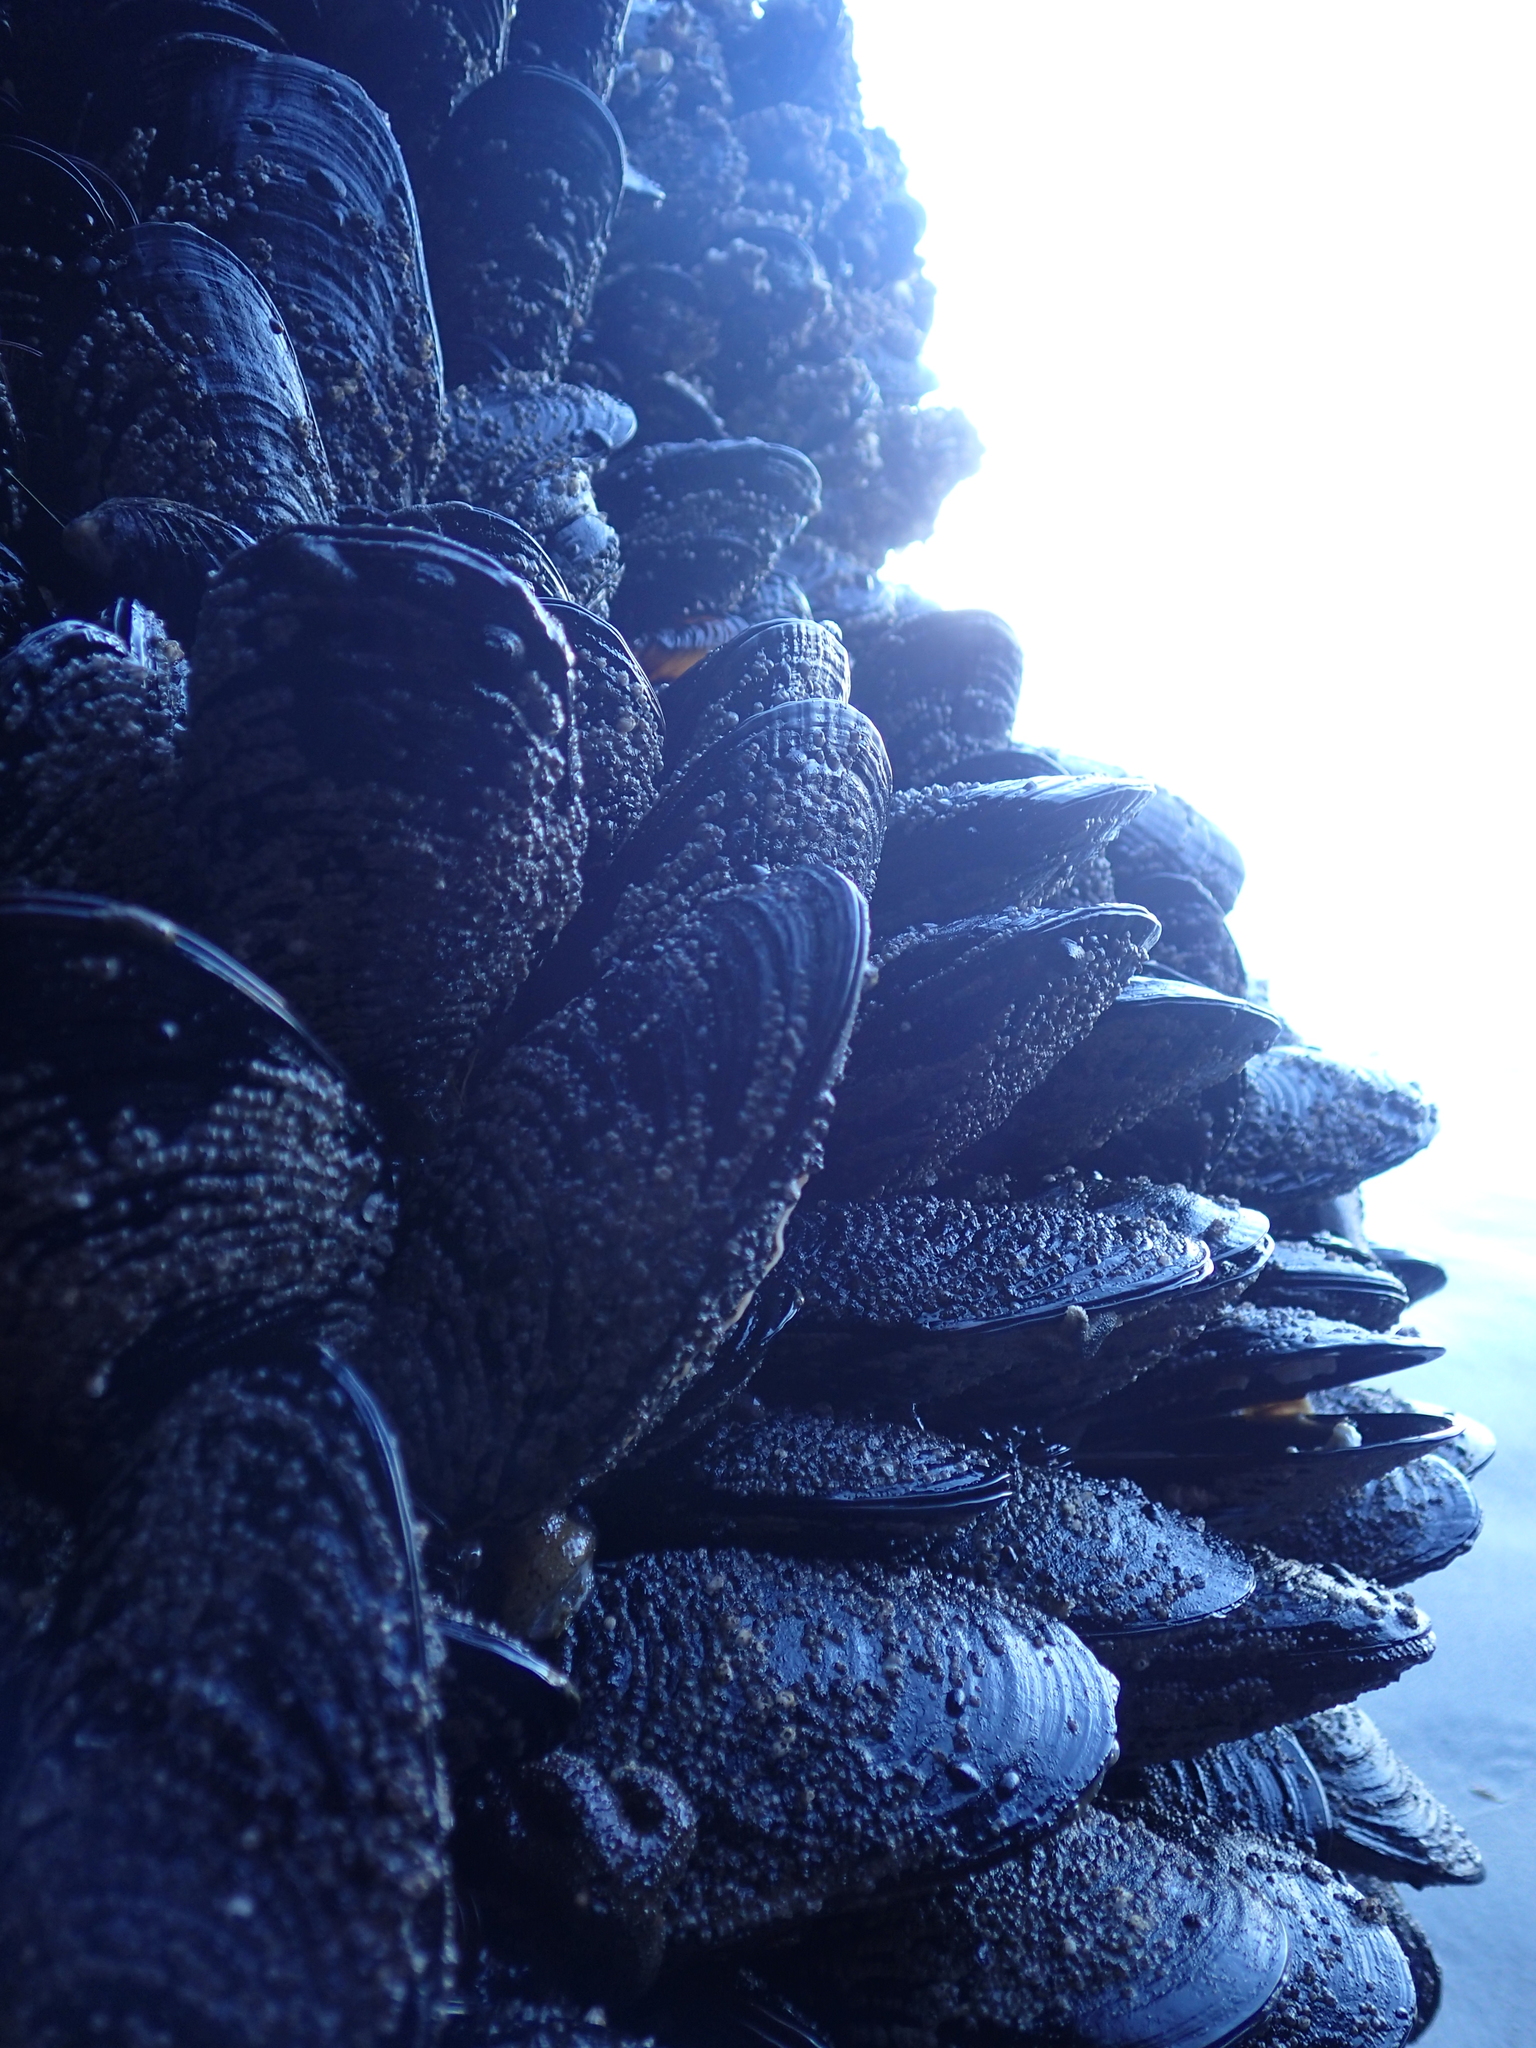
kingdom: Animalia
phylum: Mollusca
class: Bivalvia
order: Mytilida
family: Mytilidae
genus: Mytilus
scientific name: Mytilus californianus
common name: California mussel
